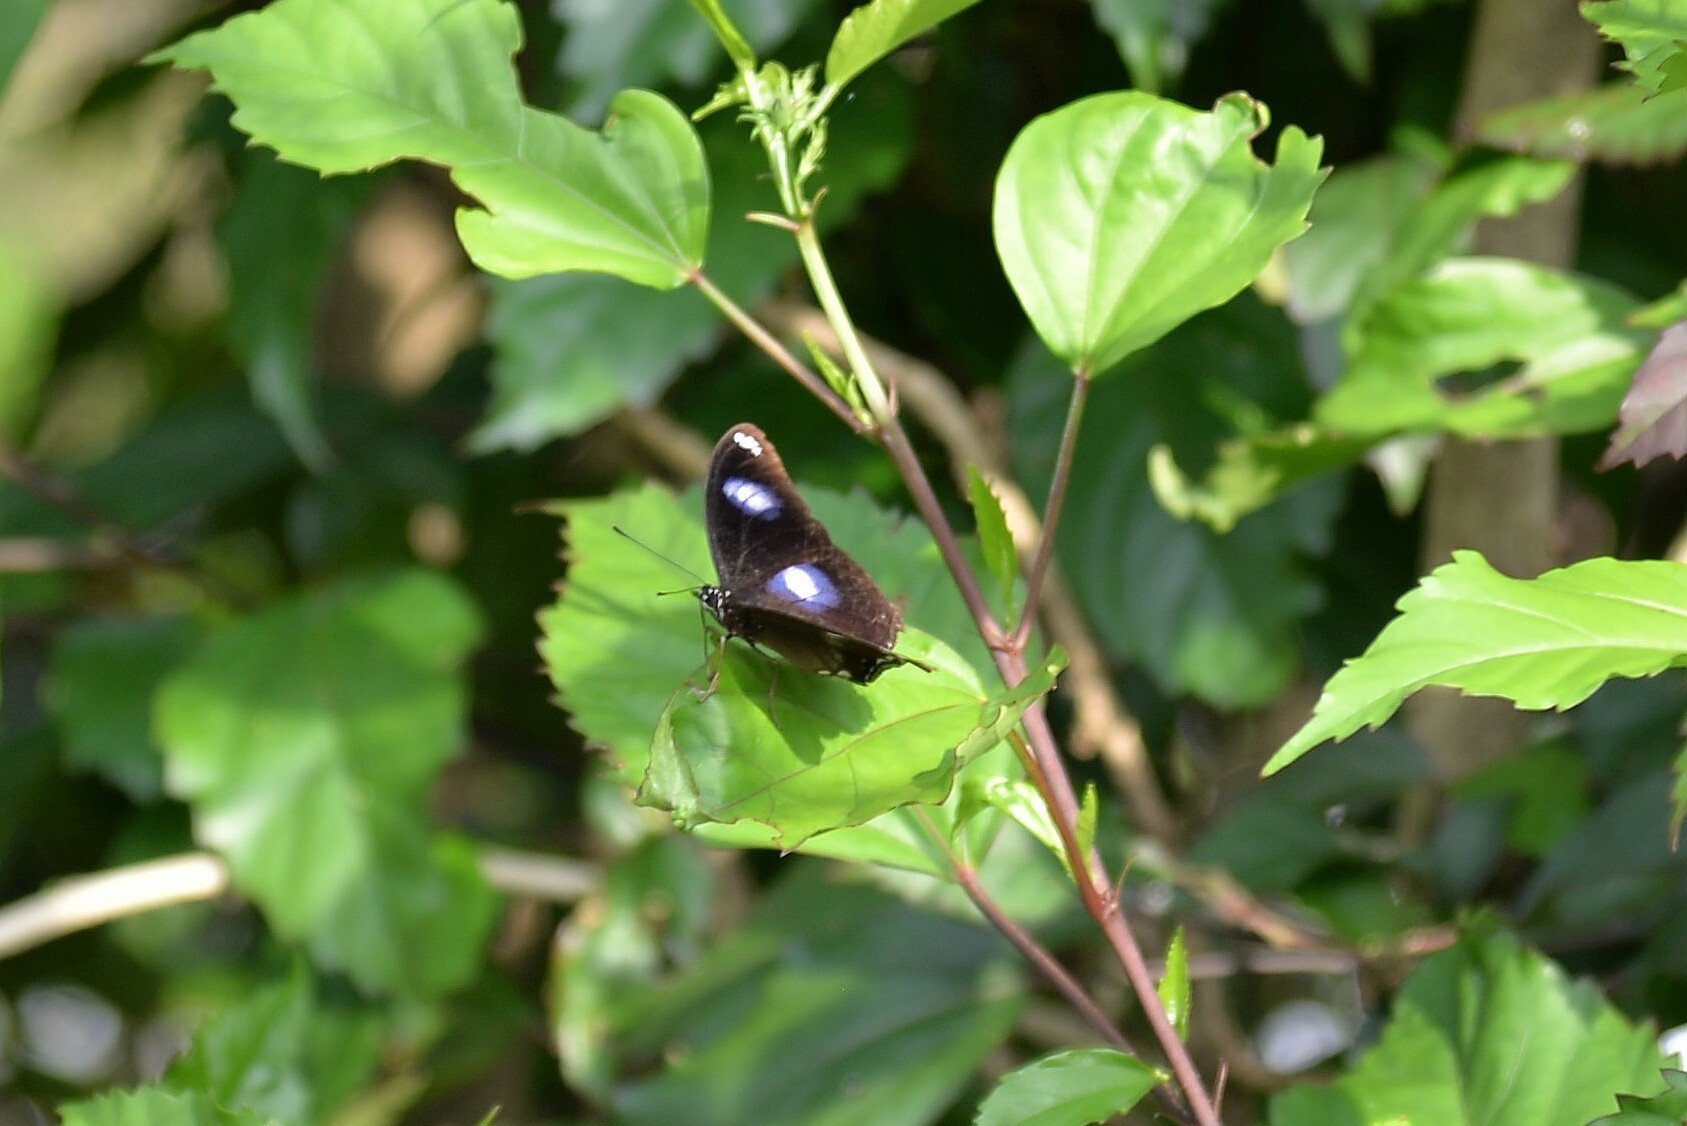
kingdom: Animalia
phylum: Arthropoda
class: Insecta
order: Lepidoptera
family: Nymphalidae
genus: Hypolimnas
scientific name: Hypolimnas bolina
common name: Great eggfly
